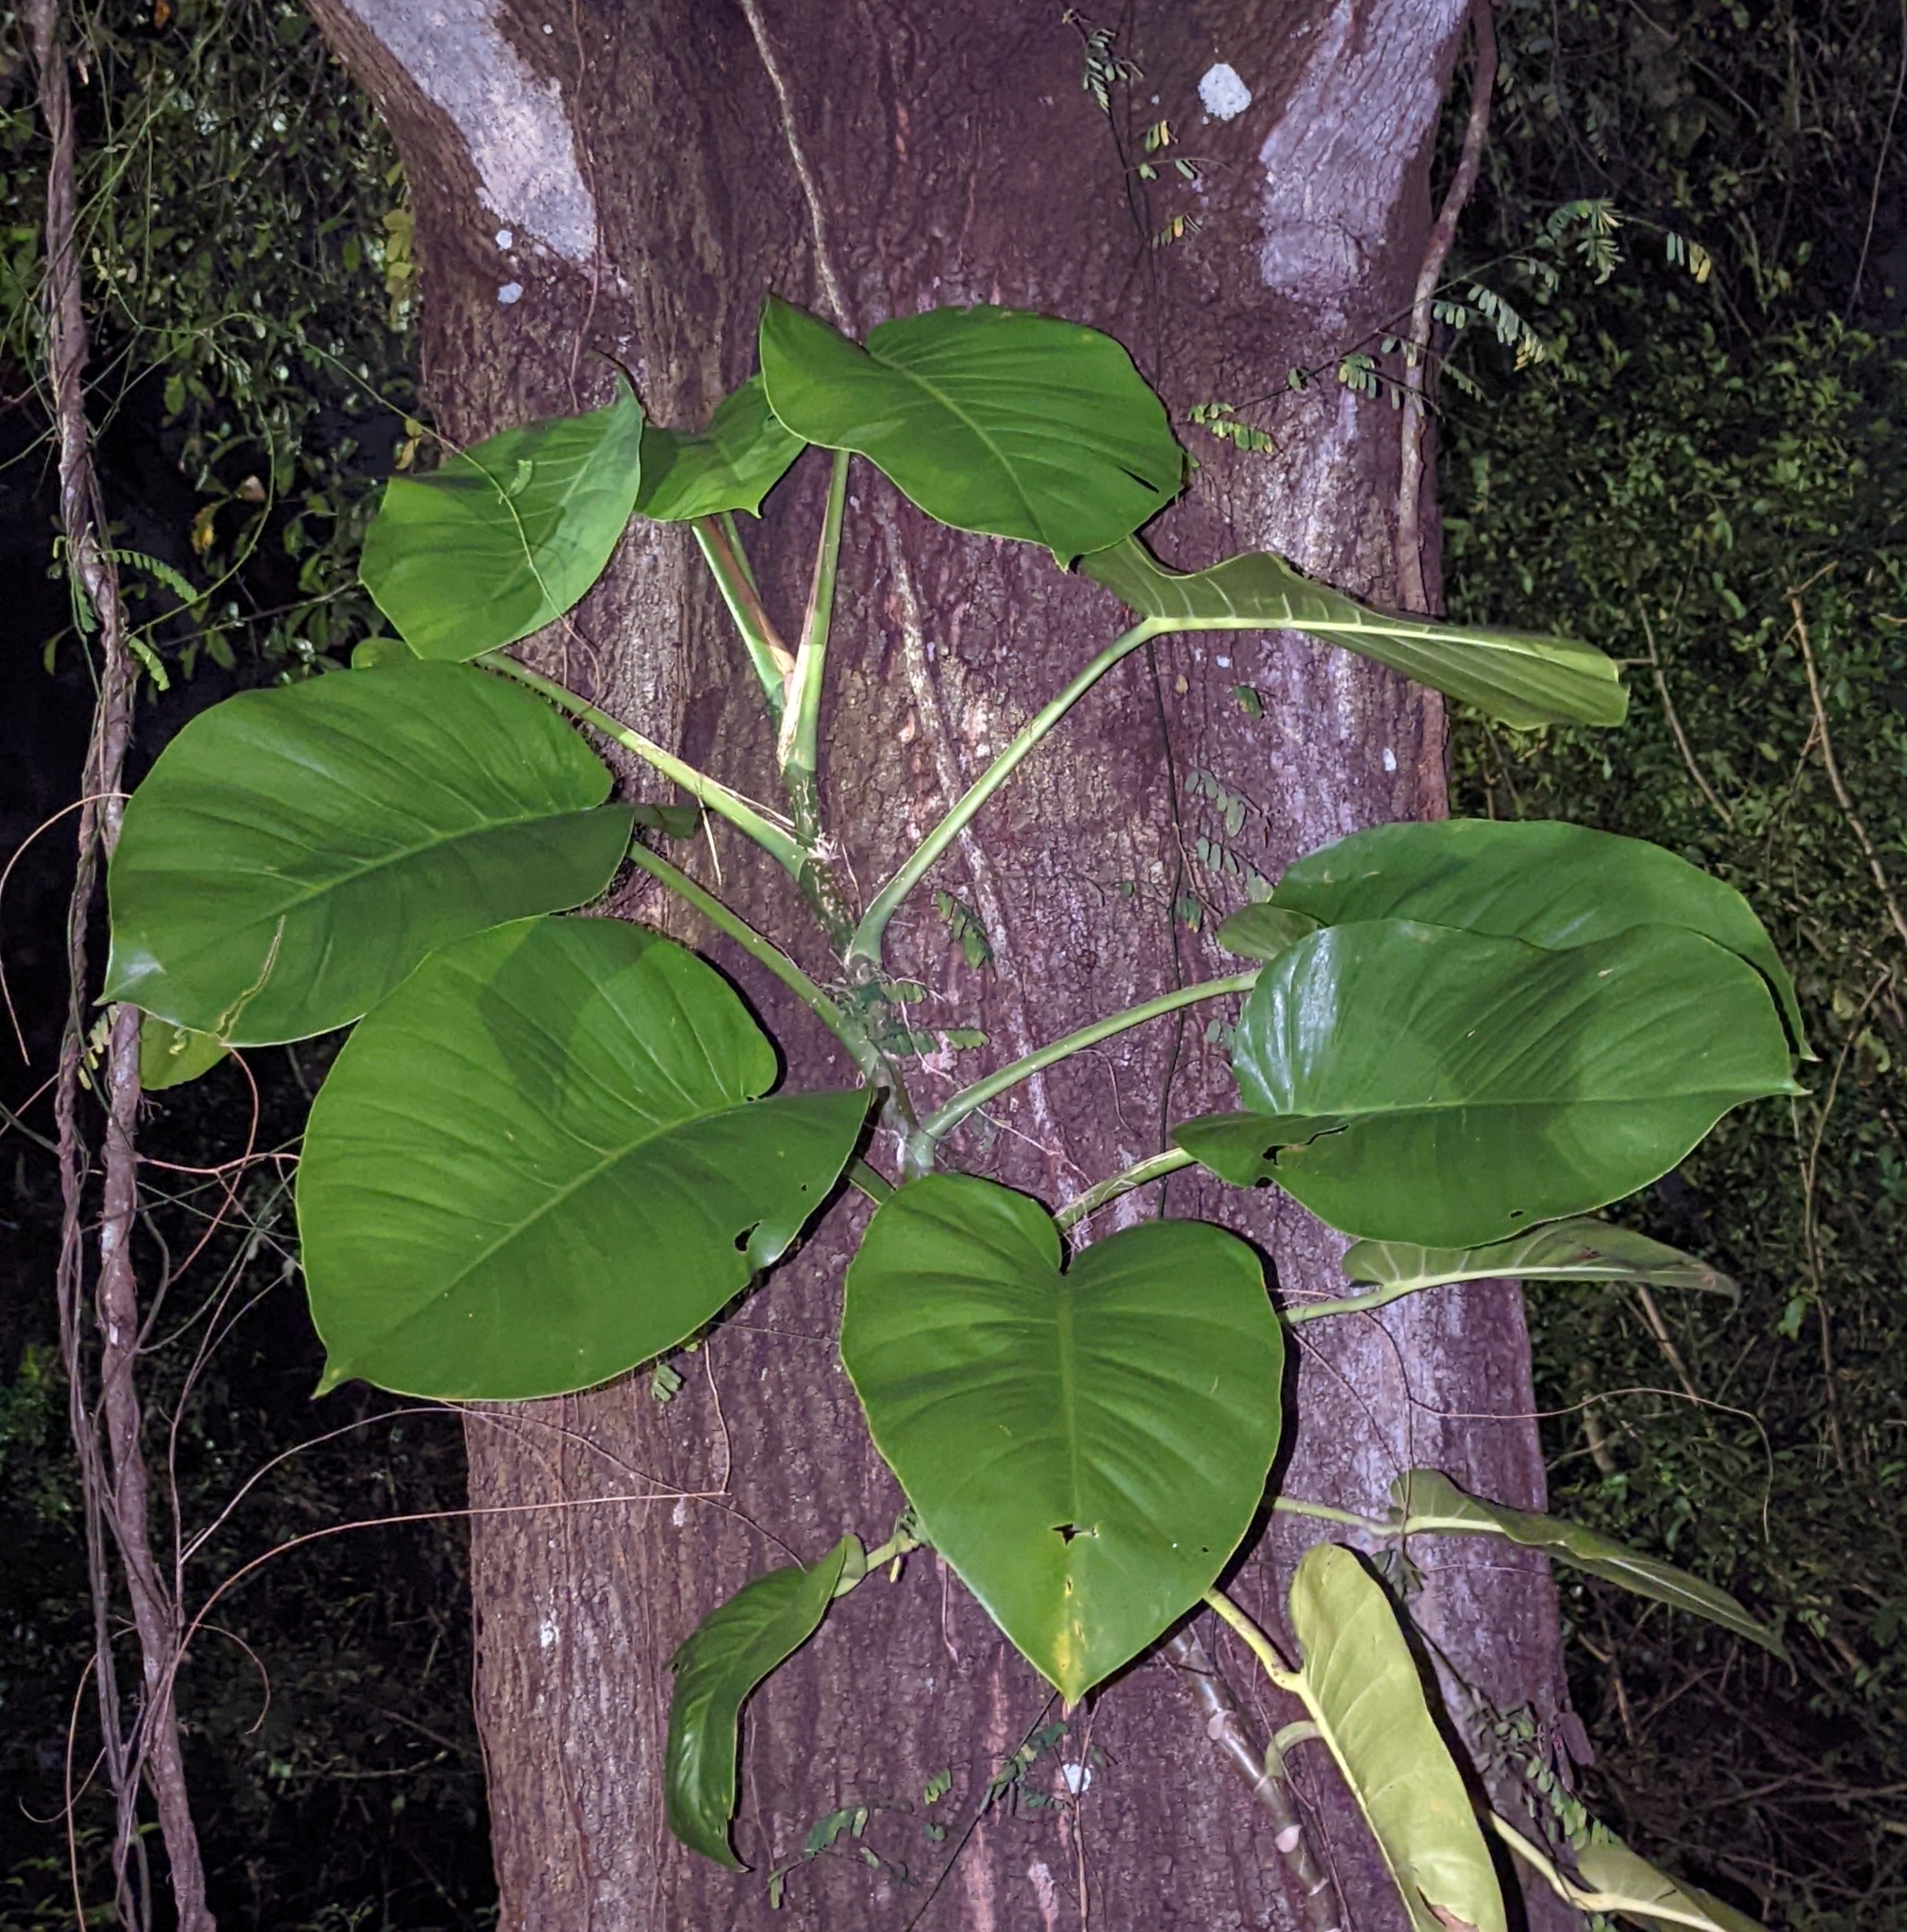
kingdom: Plantae
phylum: Tracheophyta
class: Liliopsida
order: Alismatales
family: Araceae
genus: Epipremnum
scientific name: Epipremnum aureum
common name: Golden hunter's-robe
